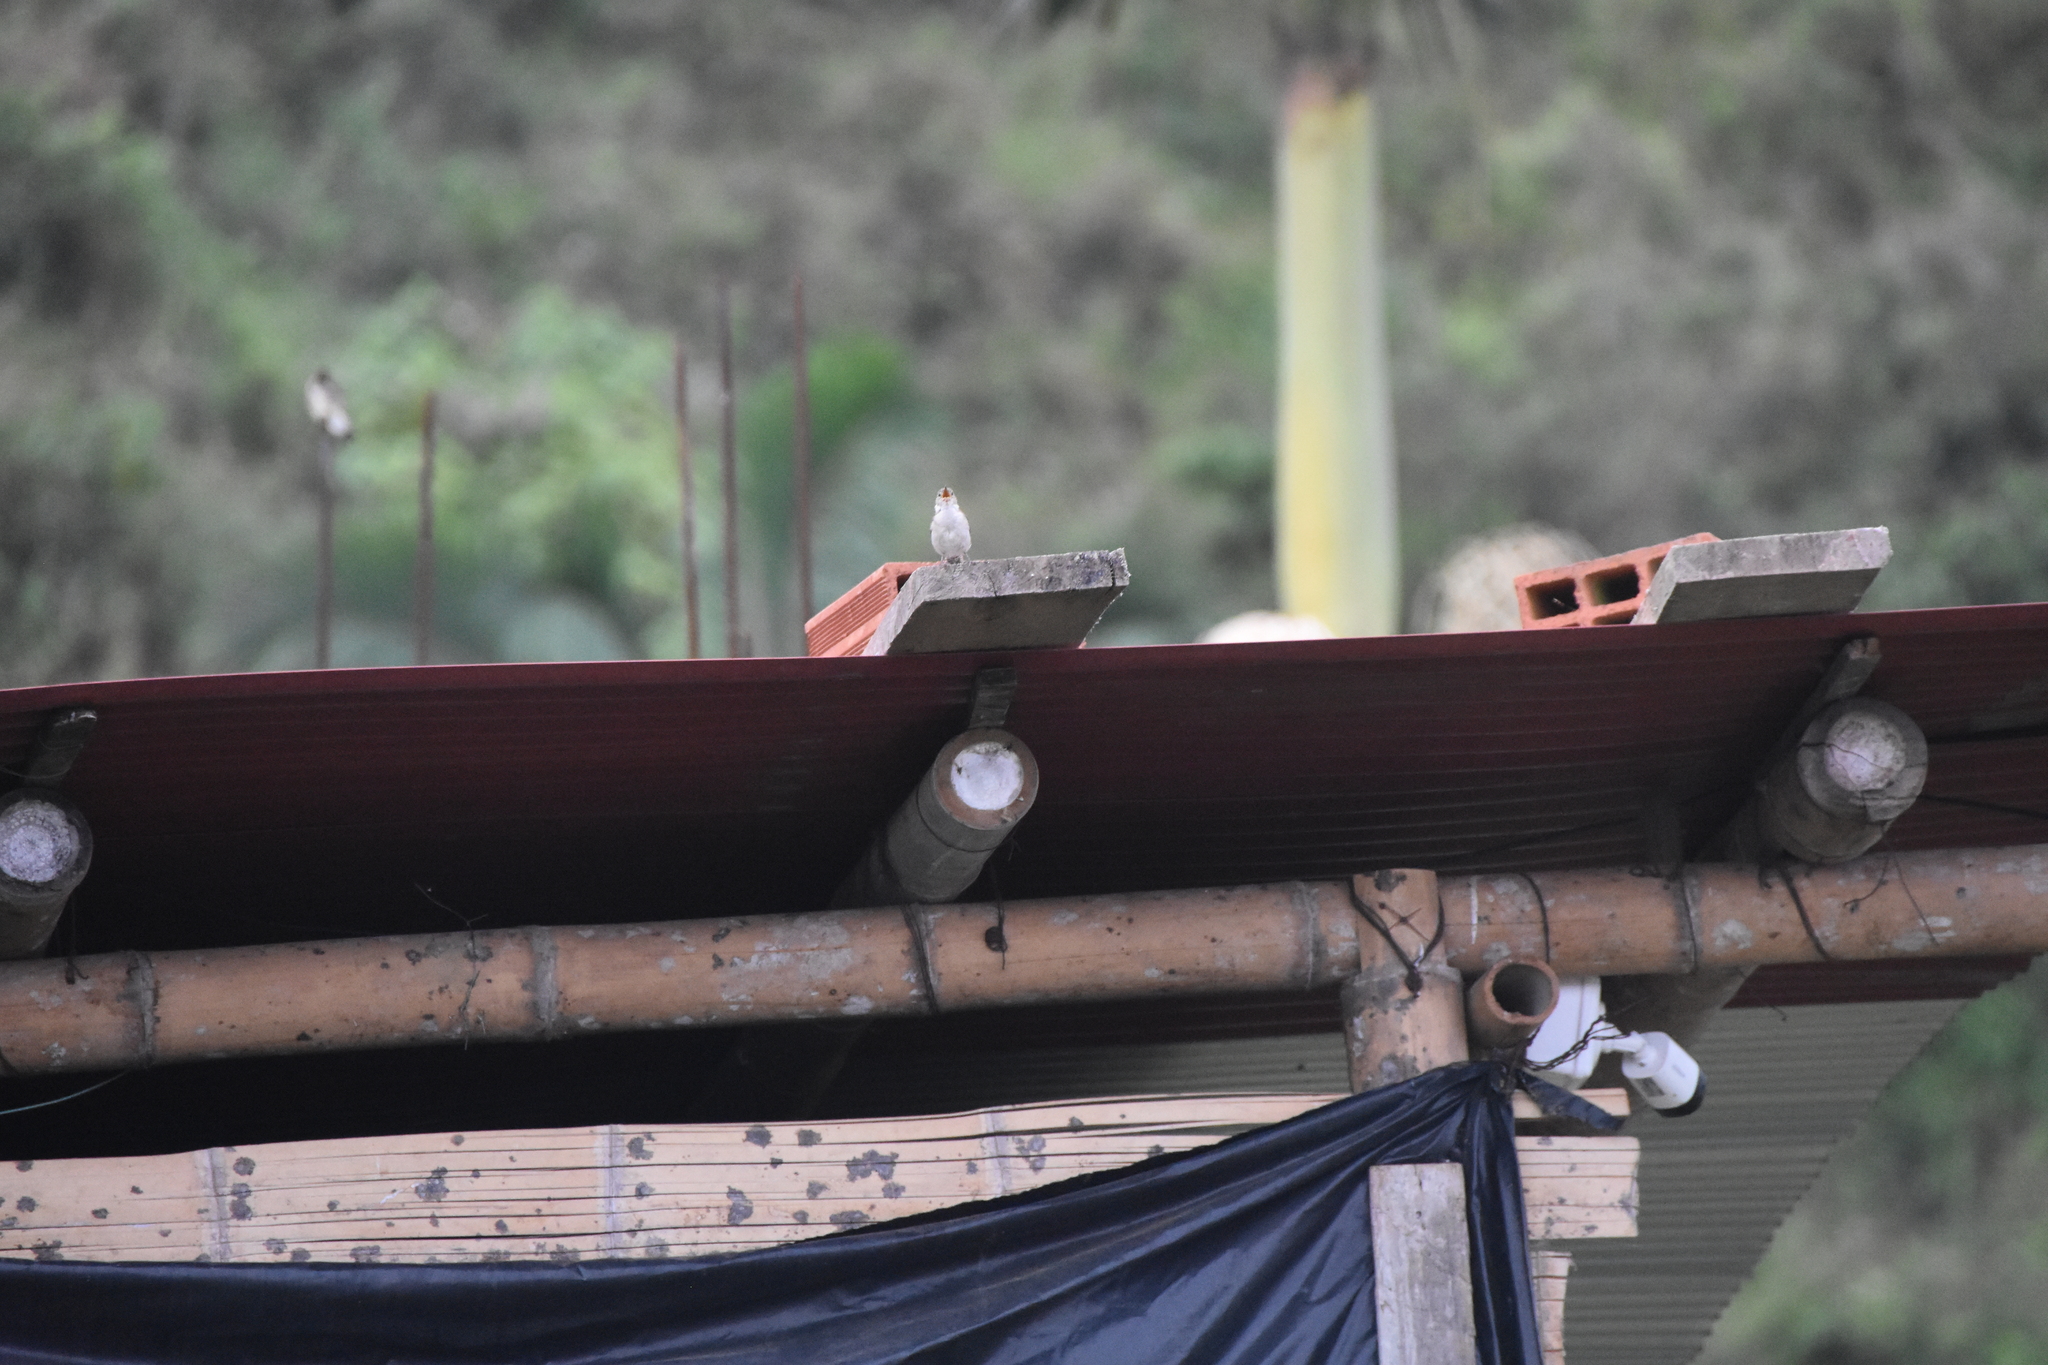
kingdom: Animalia
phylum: Chordata
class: Aves
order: Passeriformes
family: Troglodytidae
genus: Troglodytes
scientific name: Troglodytes aedon
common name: House wren
